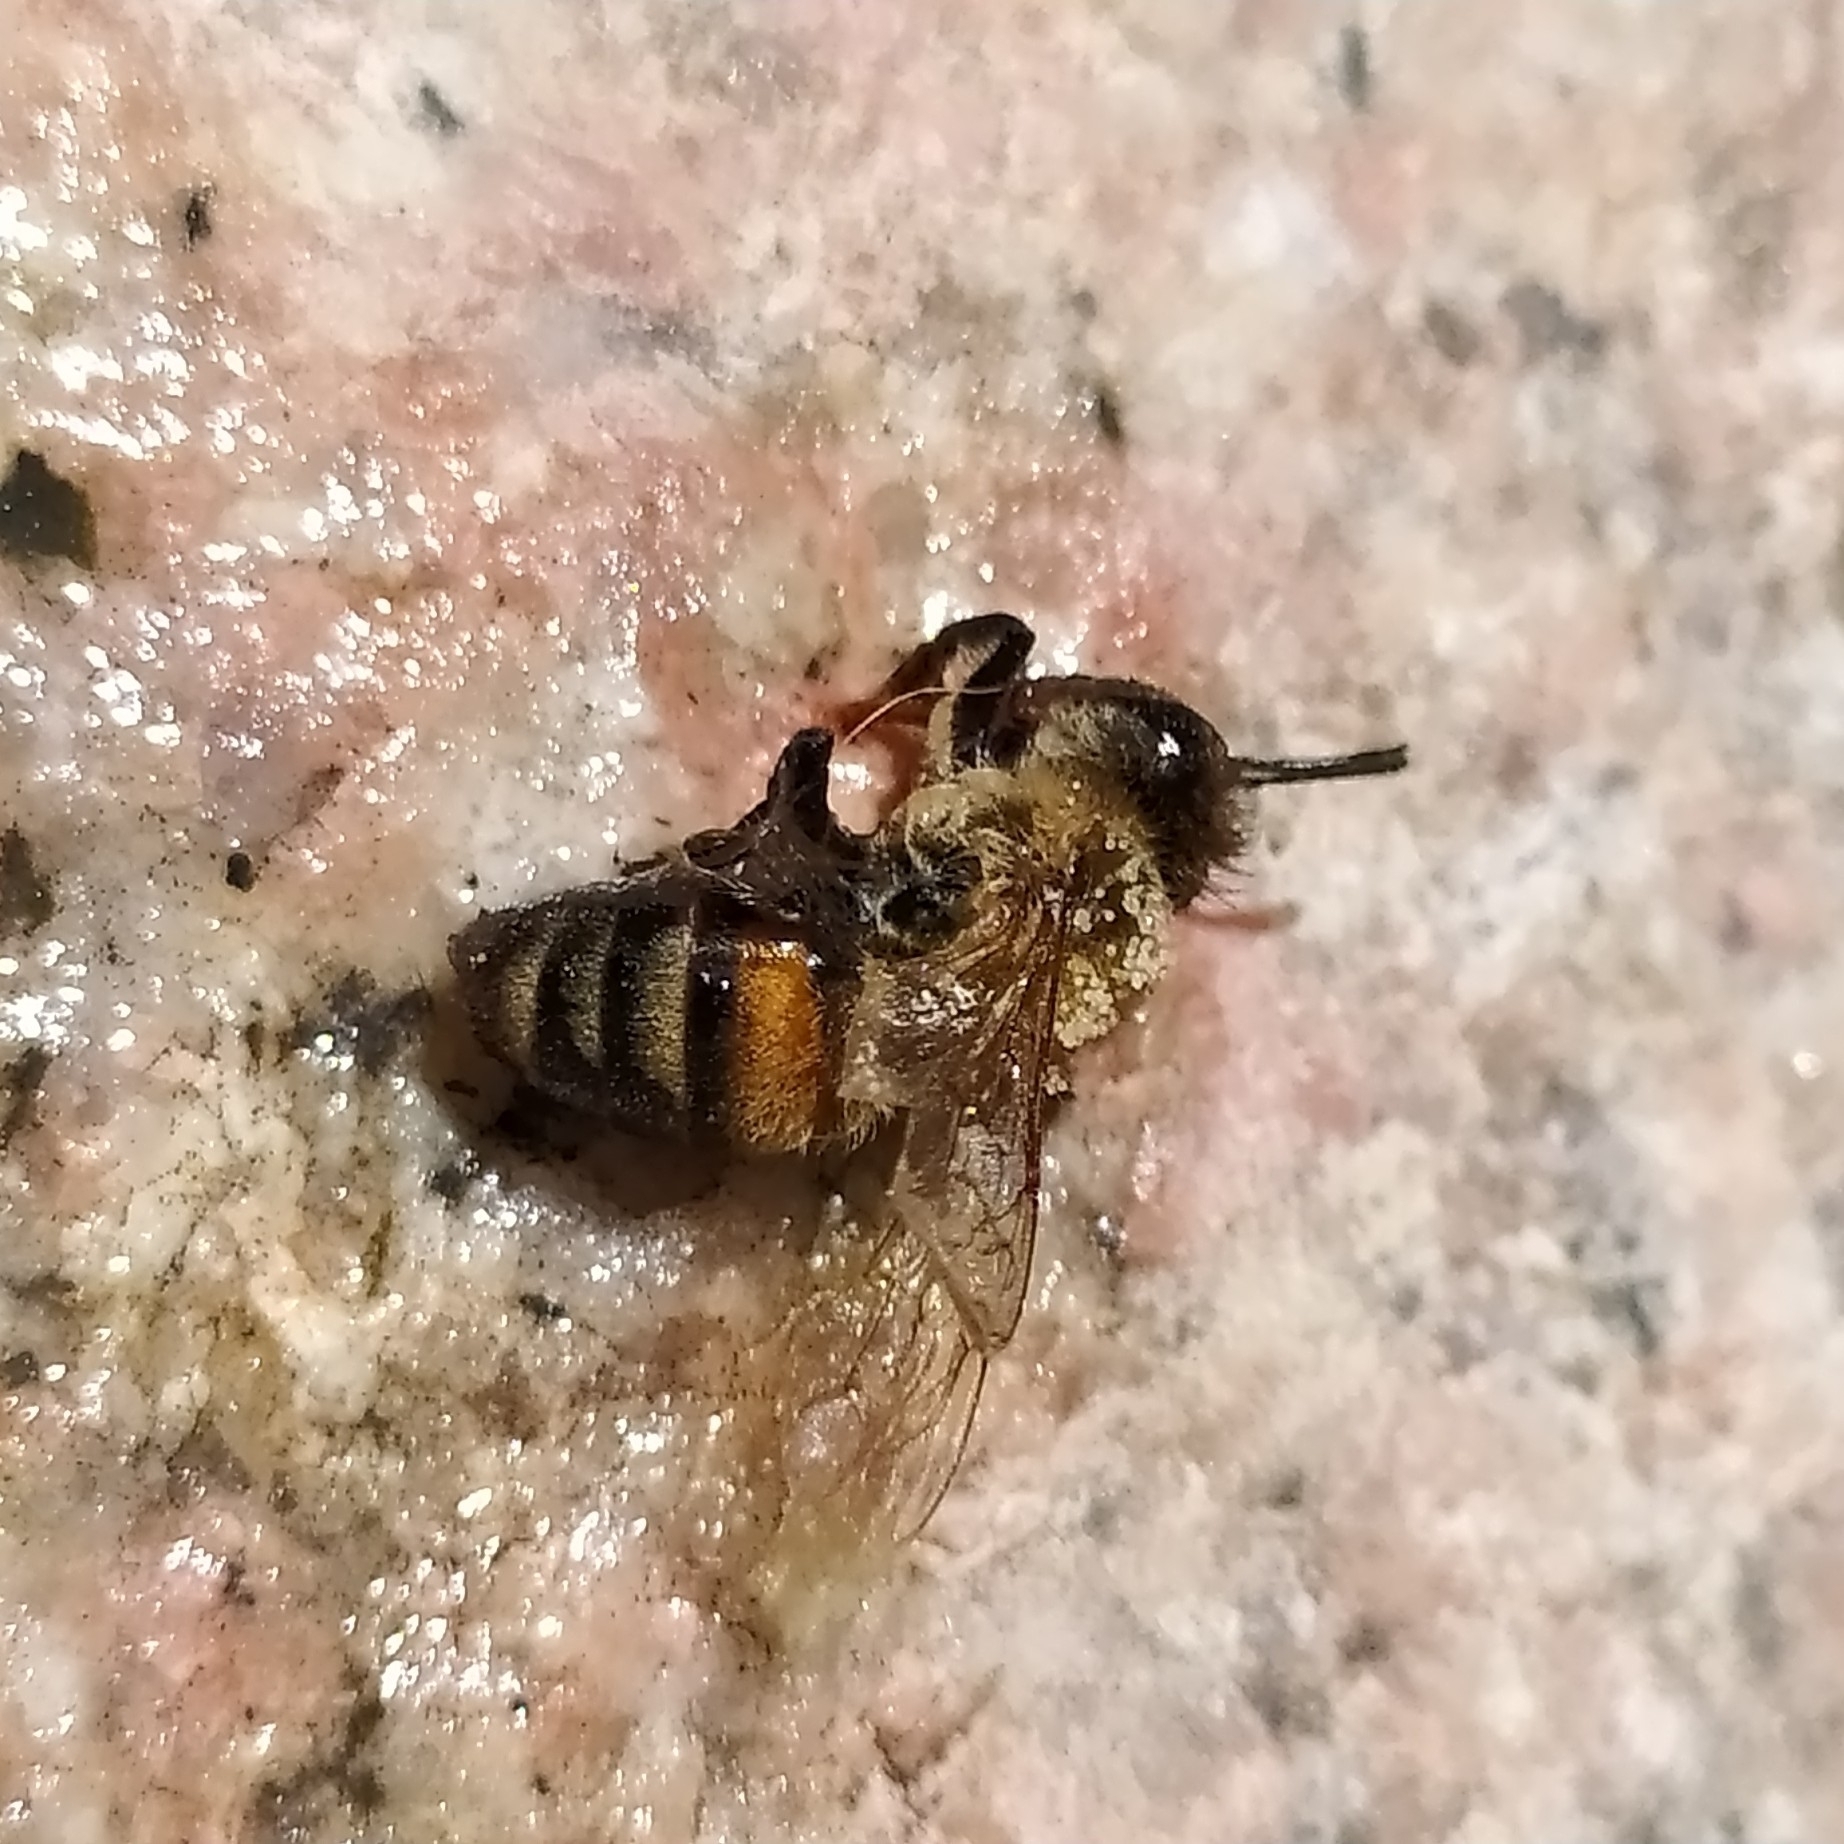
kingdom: Animalia
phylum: Arthropoda
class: Insecta
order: Hymenoptera
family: Apidae
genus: Apis
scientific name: Apis mellifera
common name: Honey bee
